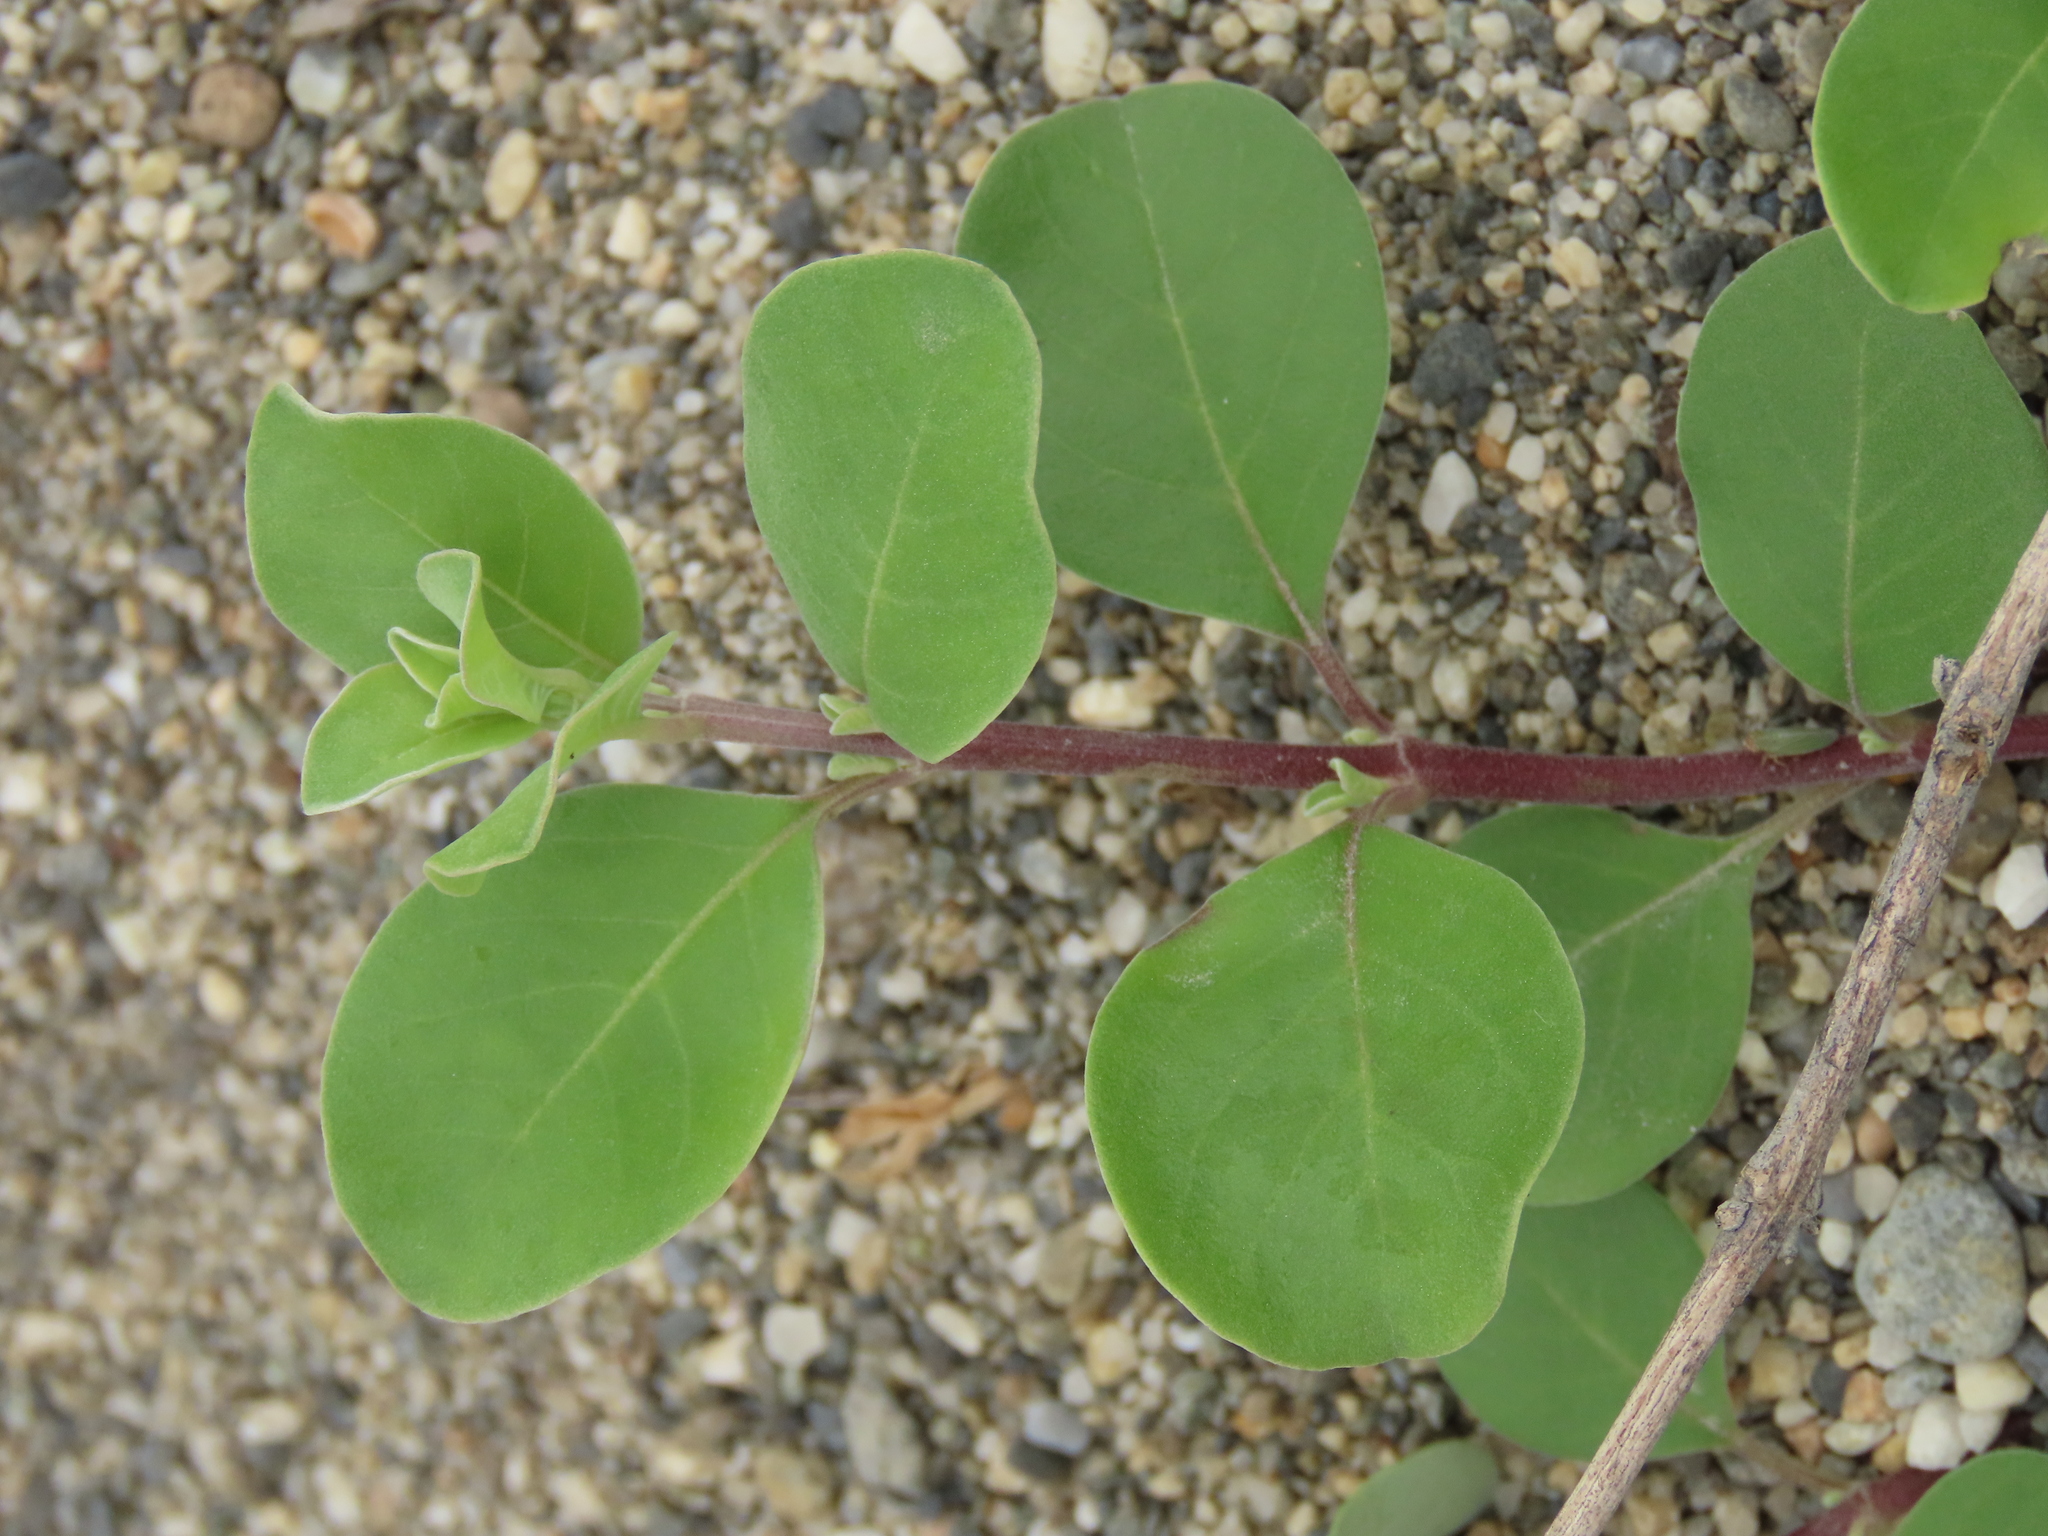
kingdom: Plantae
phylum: Tracheophyta
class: Magnoliopsida
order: Lamiales
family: Lamiaceae
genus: Vitex
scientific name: Vitex rotundifolia
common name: Beach vitex
